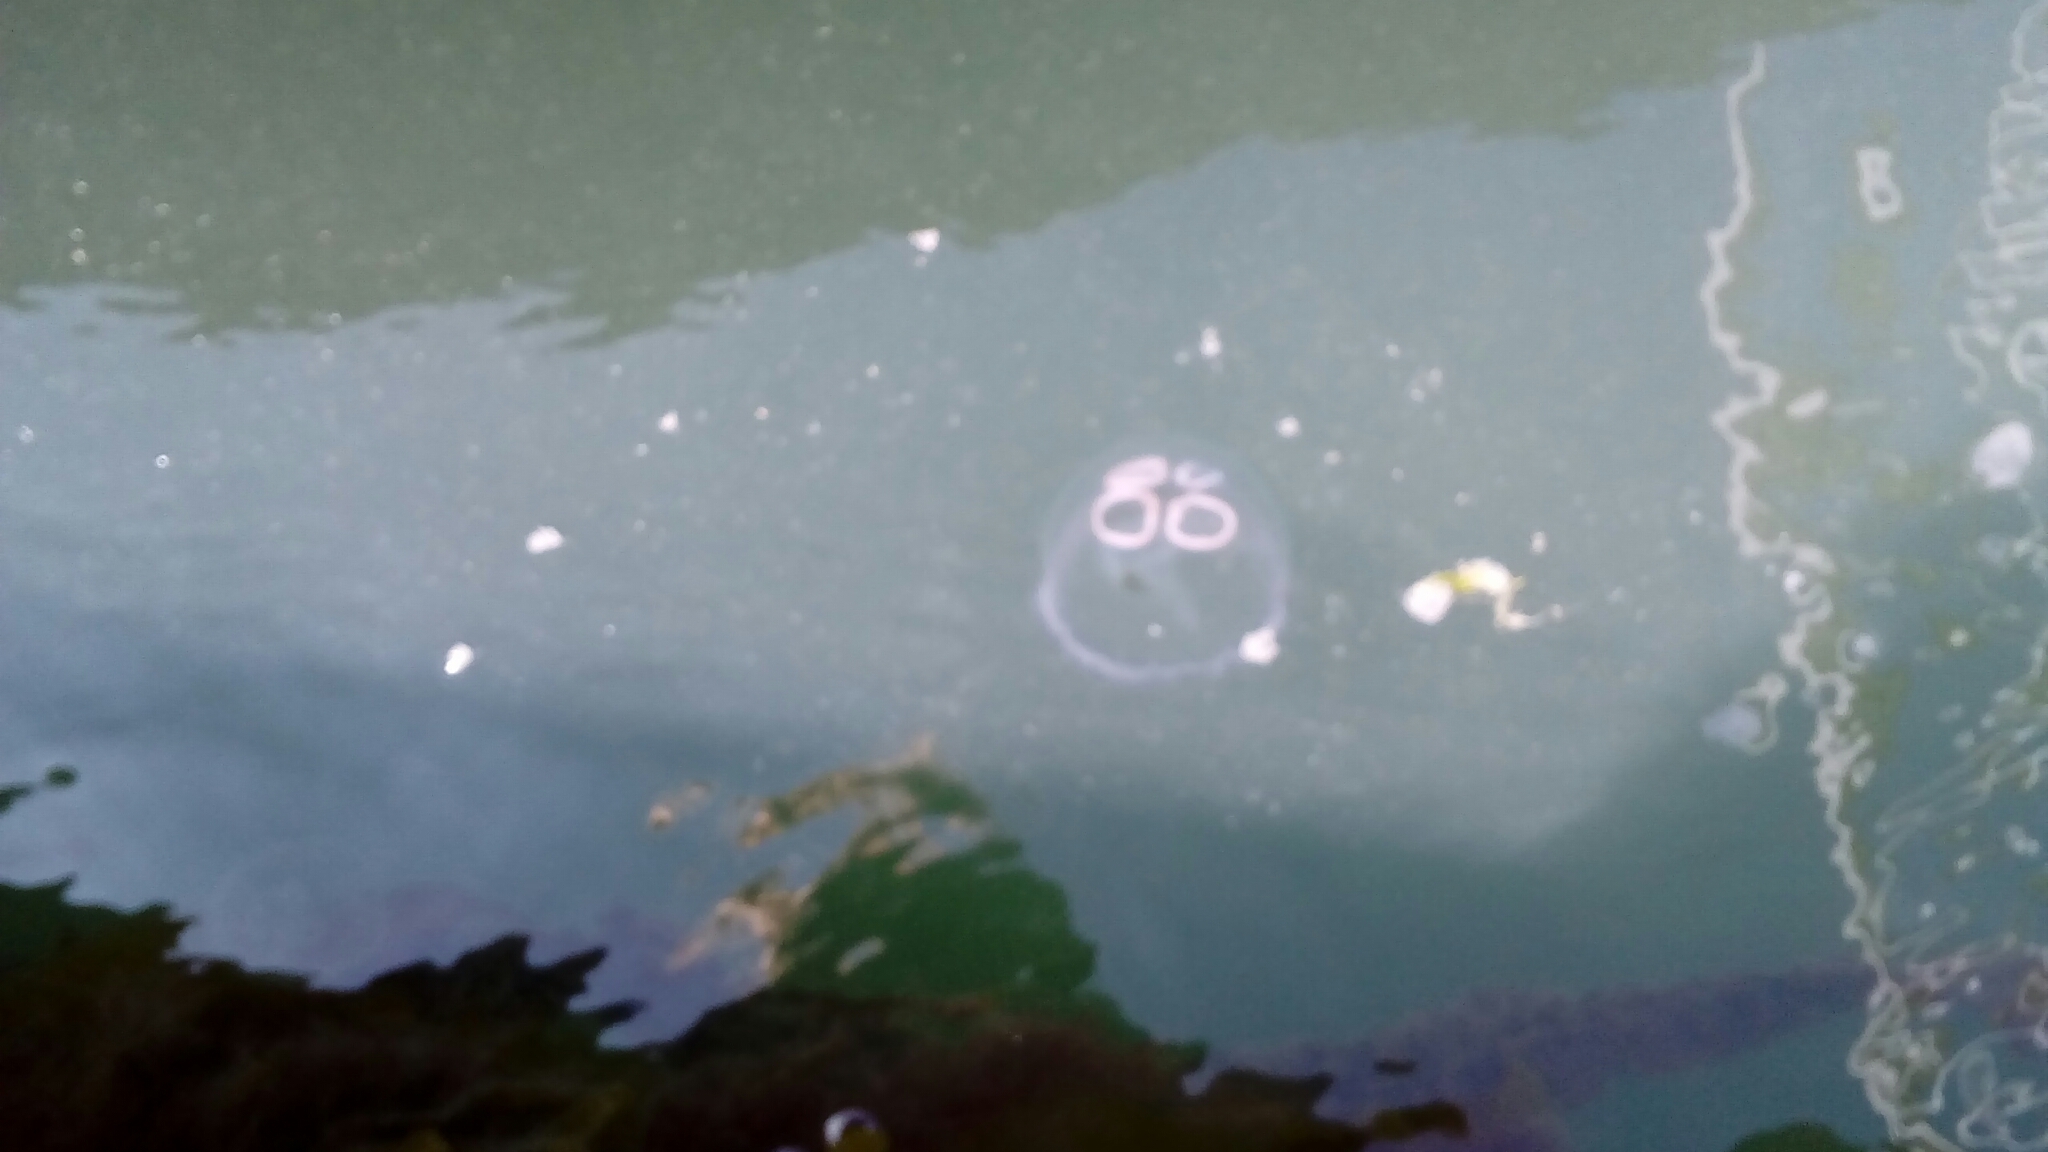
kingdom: Animalia
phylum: Cnidaria
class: Scyphozoa
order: Semaeostomeae
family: Ulmaridae
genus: Aurelia
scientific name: Aurelia aurita
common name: Moon jellyfish
